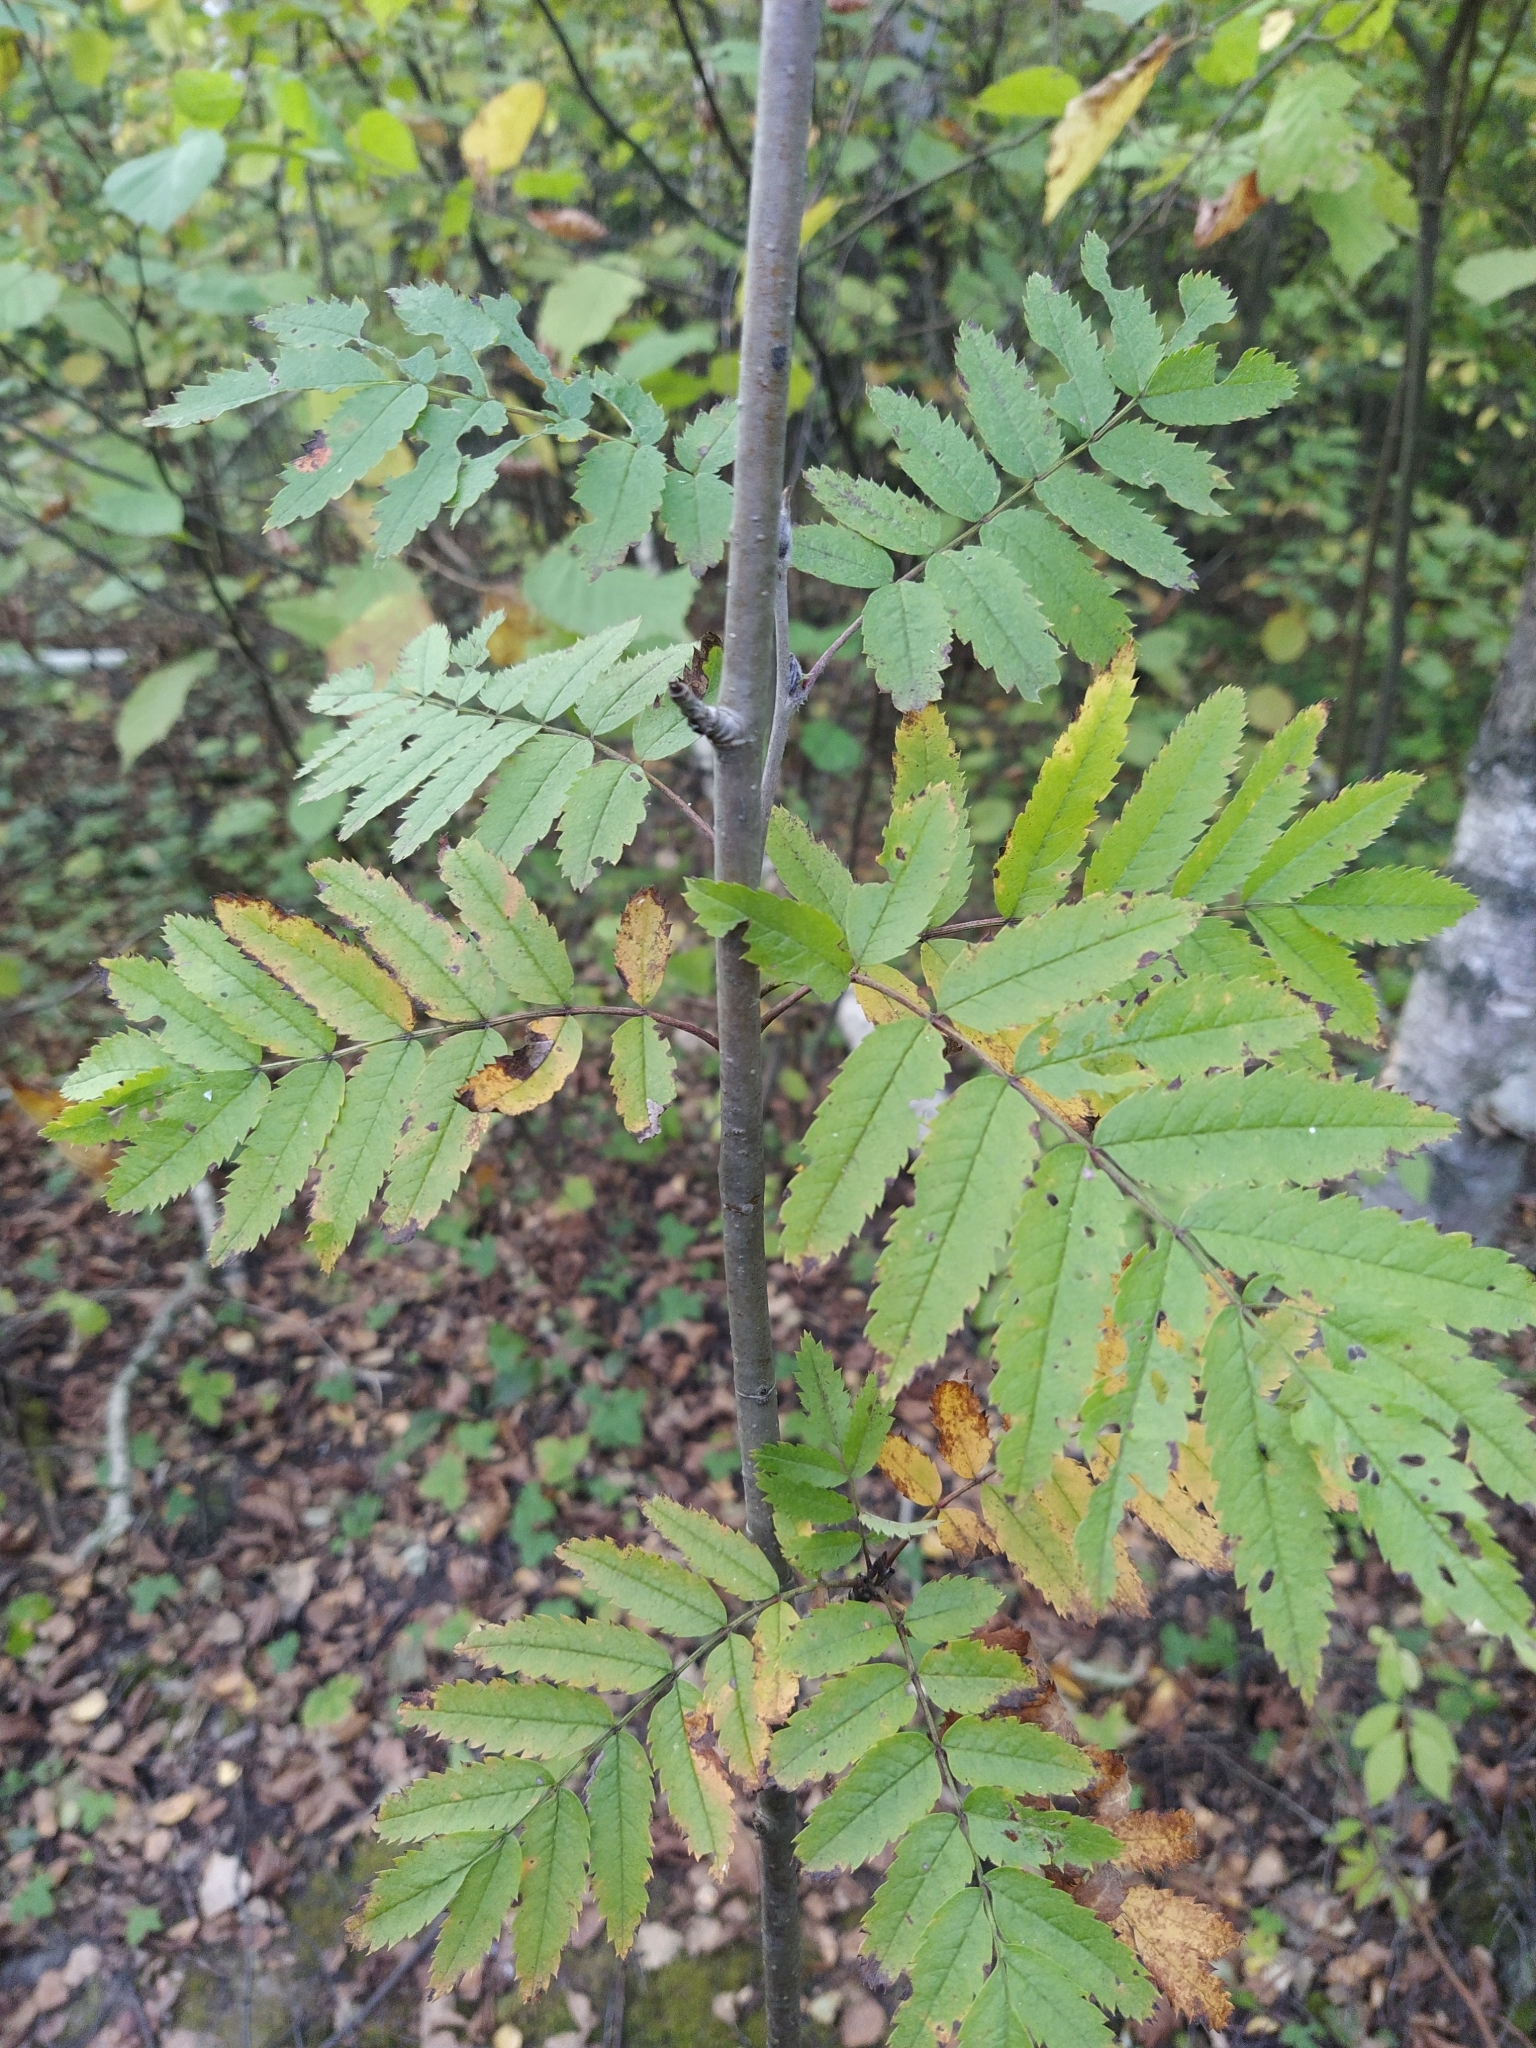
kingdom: Plantae
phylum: Tracheophyta
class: Magnoliopsida
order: Rosales
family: Rosaceae
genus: Sorbus
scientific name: Sorbus aucuparia
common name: Rowan
